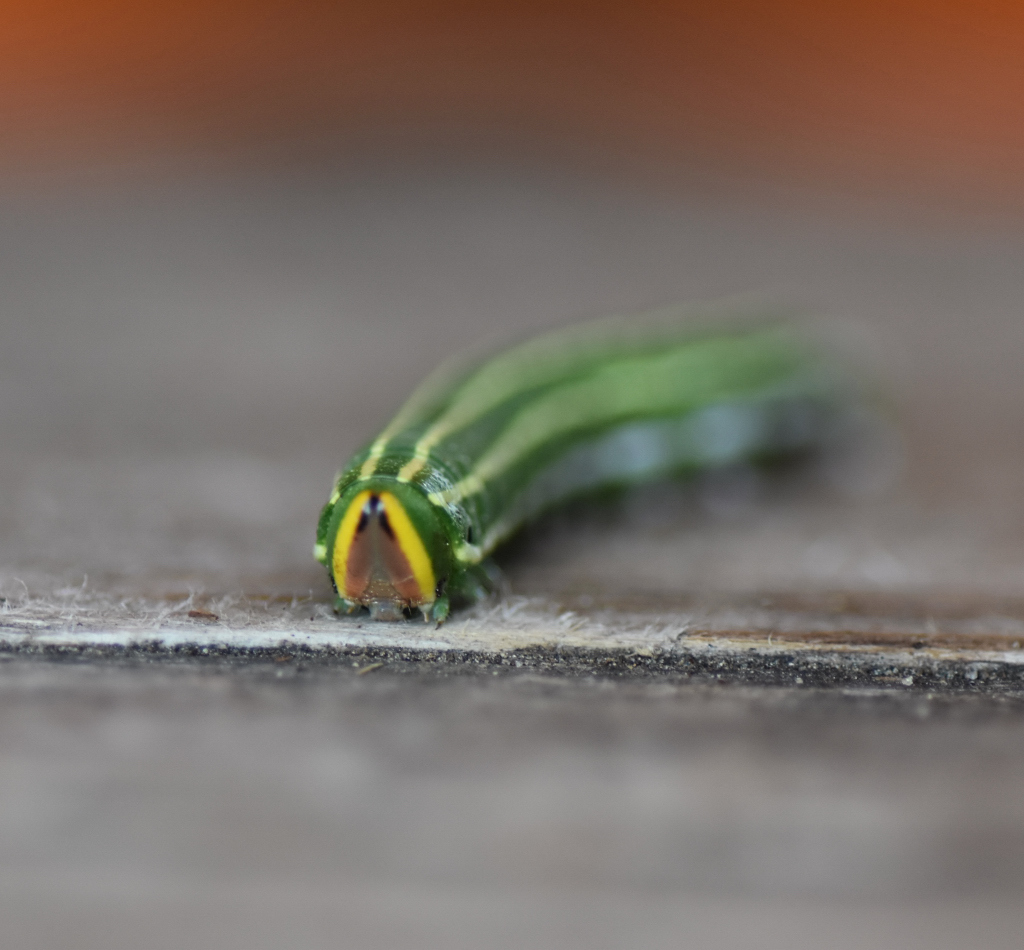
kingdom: Animalia
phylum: Arthropoda
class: Insecta
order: Lepidoptera
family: Sphingidae
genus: Lapara
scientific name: Lapara bombycoides
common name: Northern pine sphinx
